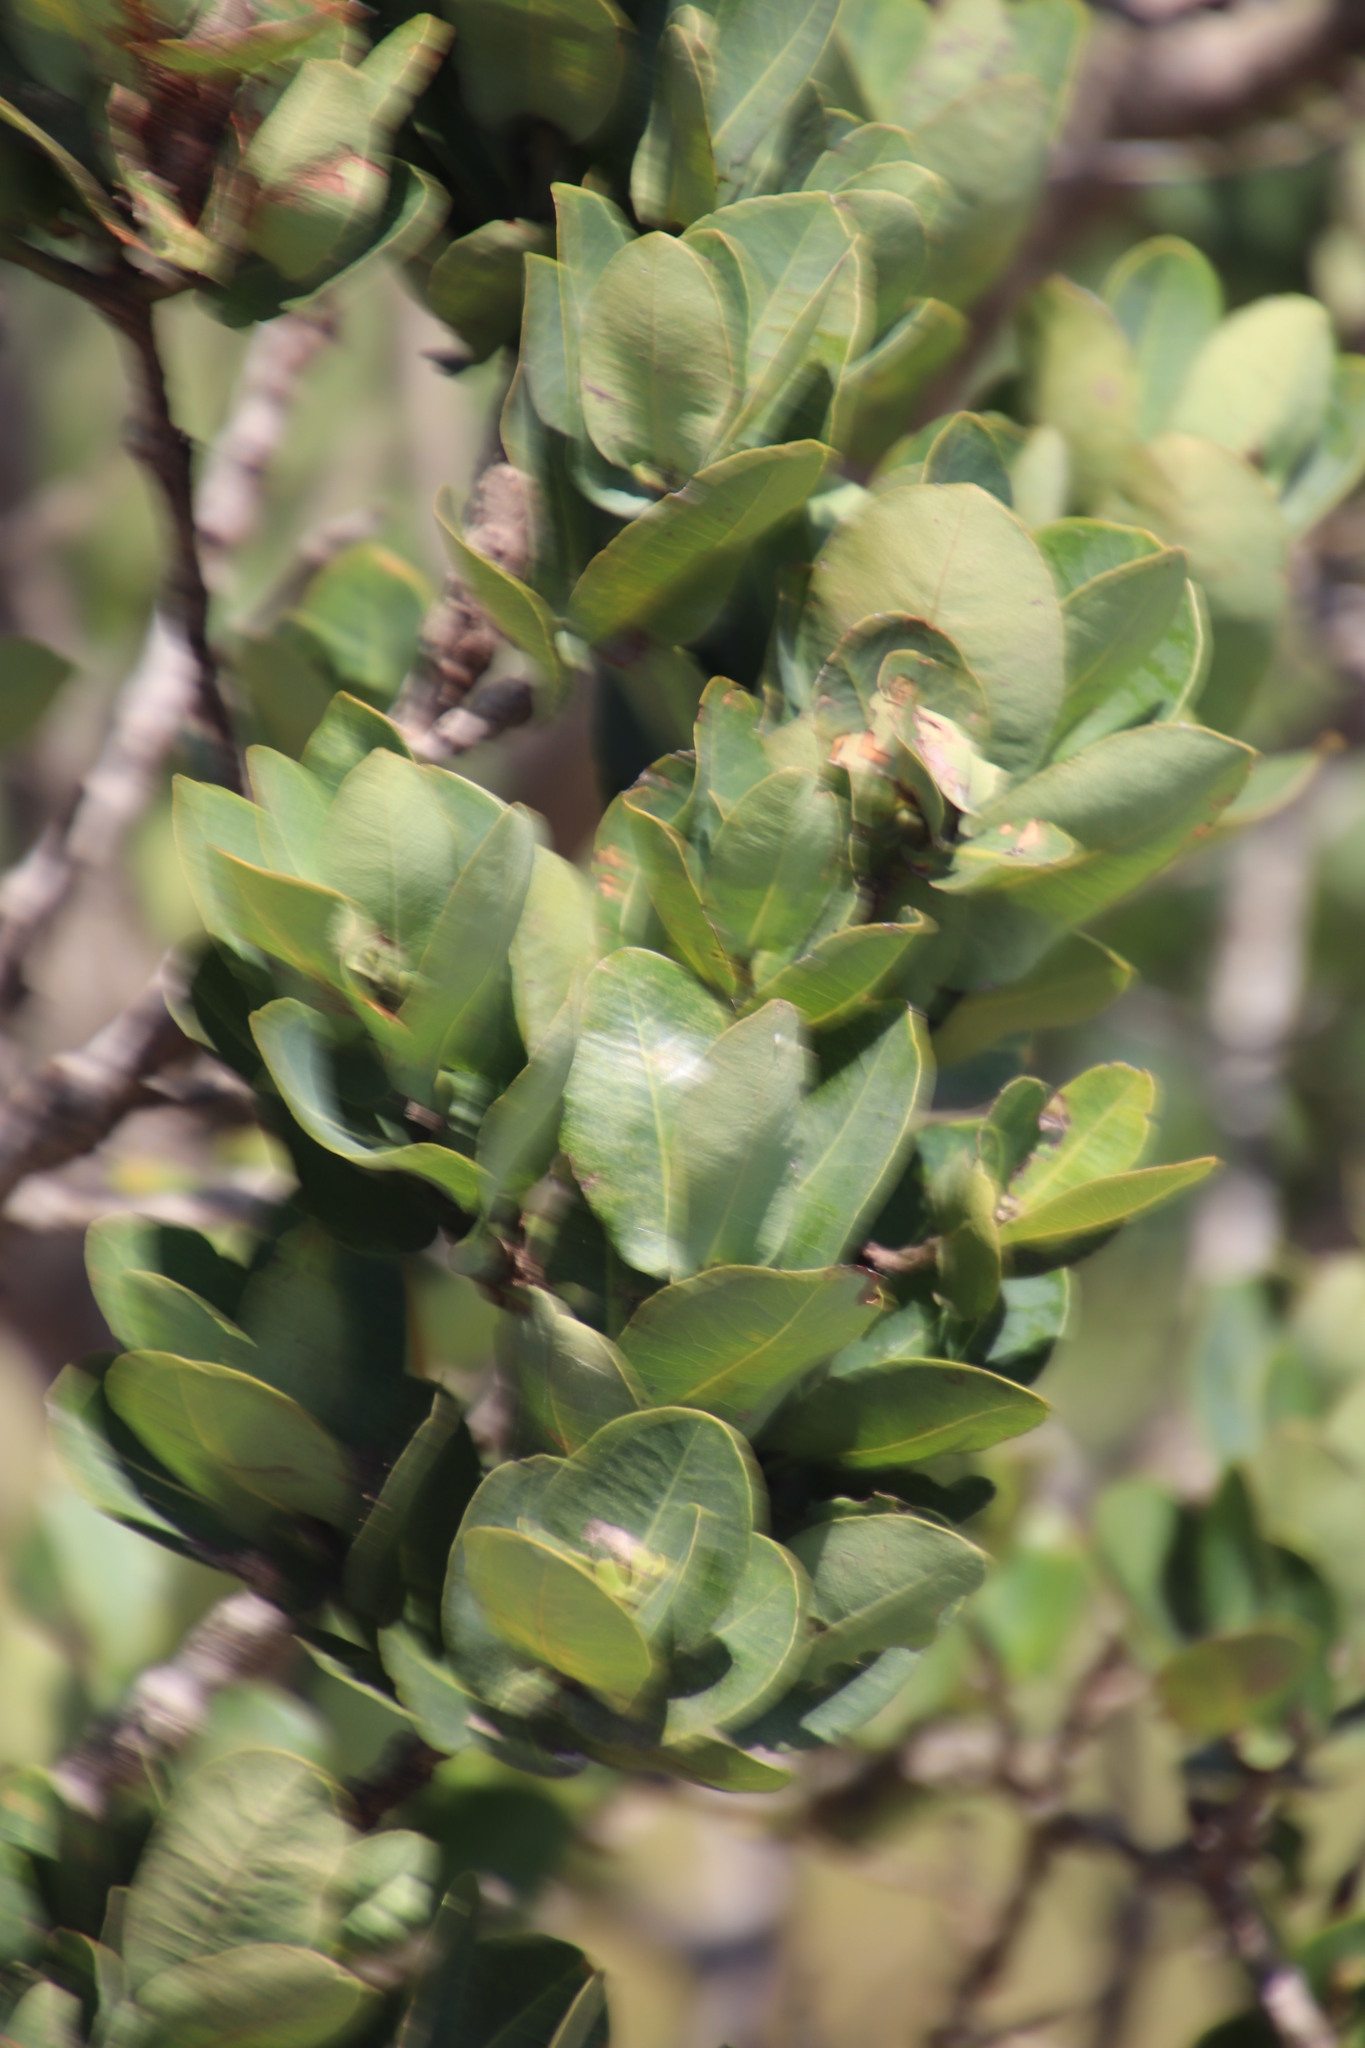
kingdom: Plantae
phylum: Tracheophyta
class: Magnoliopsida
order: Myrtales
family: Myrtaceae
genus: Syzygium
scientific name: Syzygium cordatum
